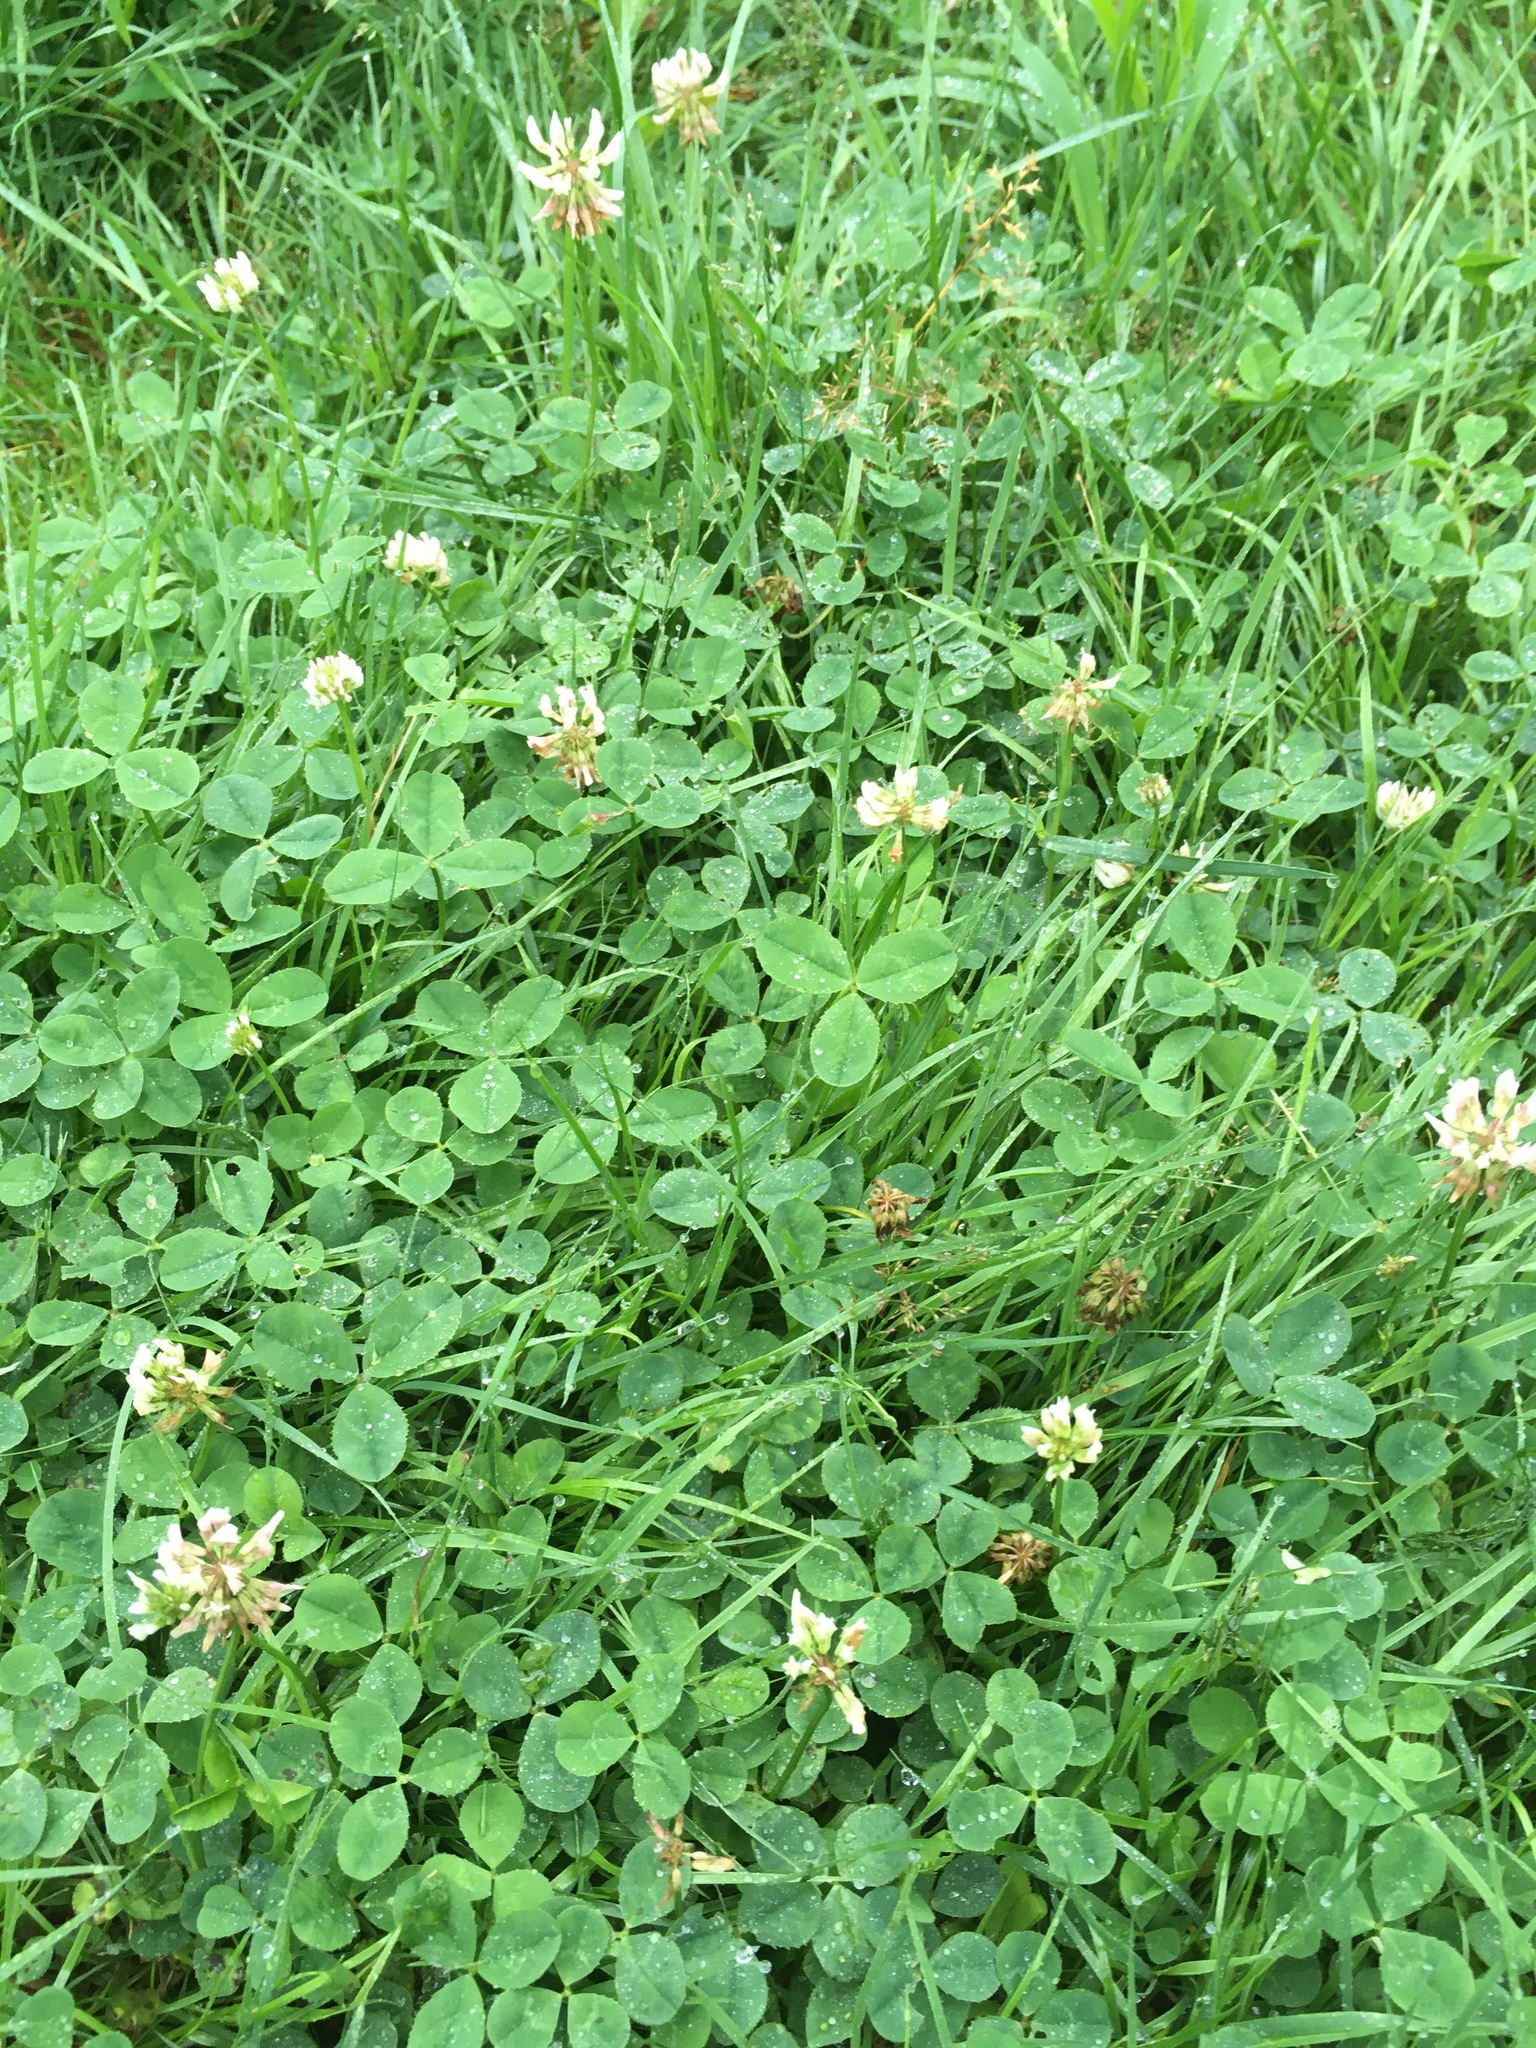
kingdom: Plantae
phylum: Tracheophyta
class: Magnoliopsida
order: Fabales
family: Fabaceae
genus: Trifolium
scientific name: Trifolium repens
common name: White clover
